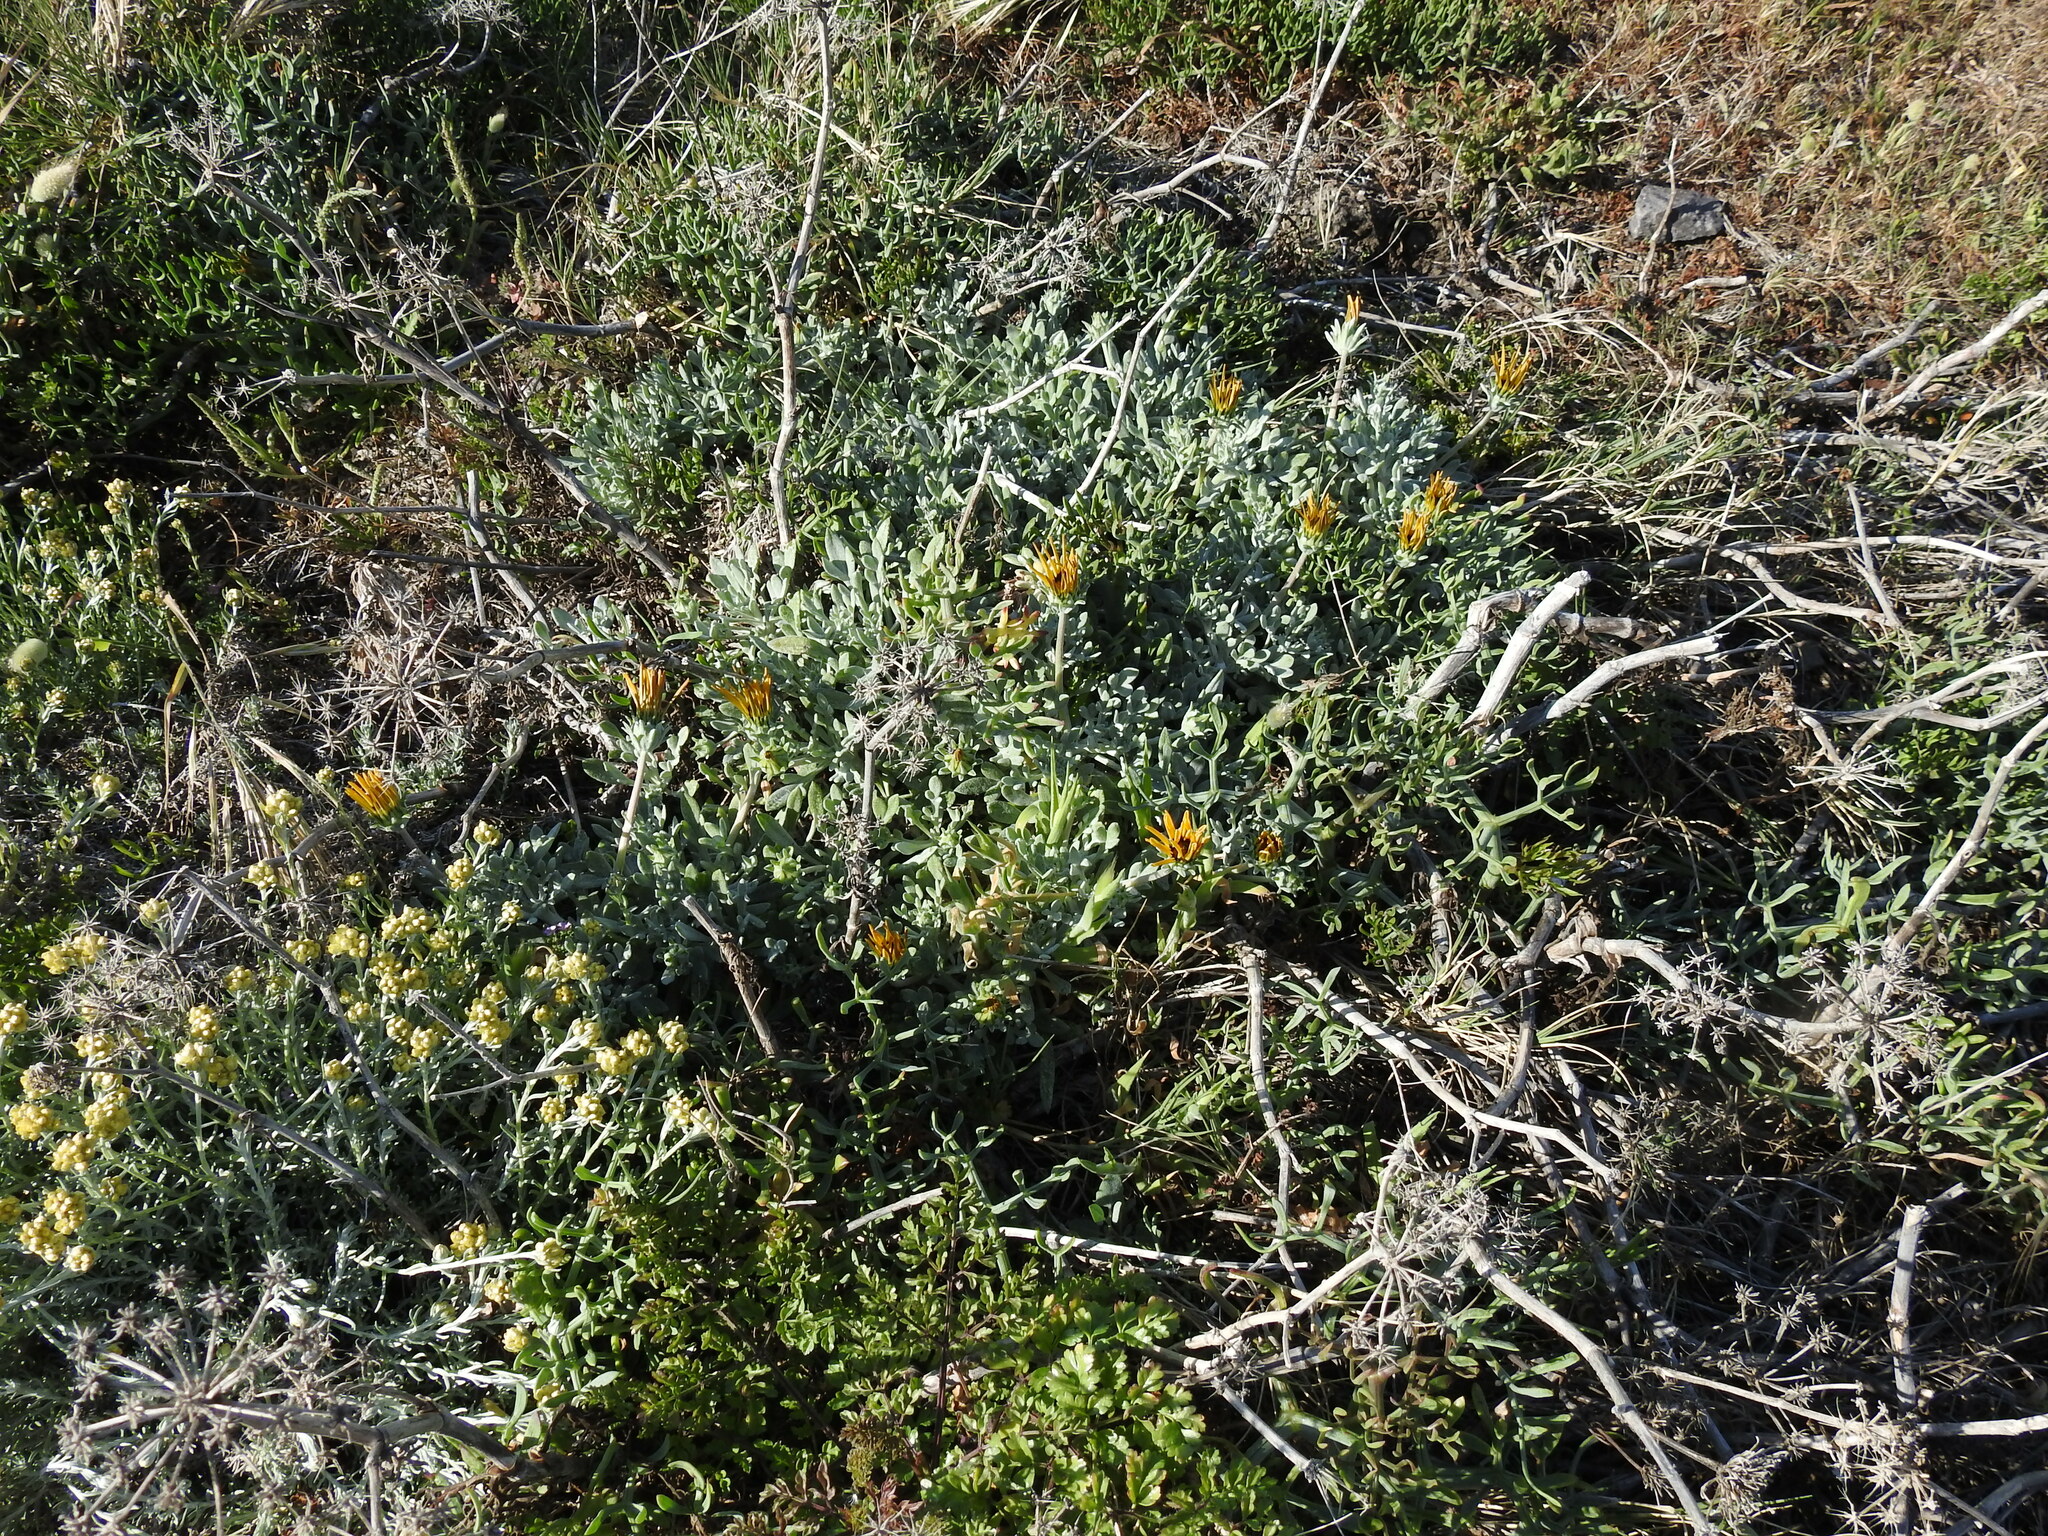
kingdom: Plantae
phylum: Tracheophyta
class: Magnoliopsida
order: Asterales
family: Asteraceae
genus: Gazania
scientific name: Gazania rigens
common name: Treasureflower
